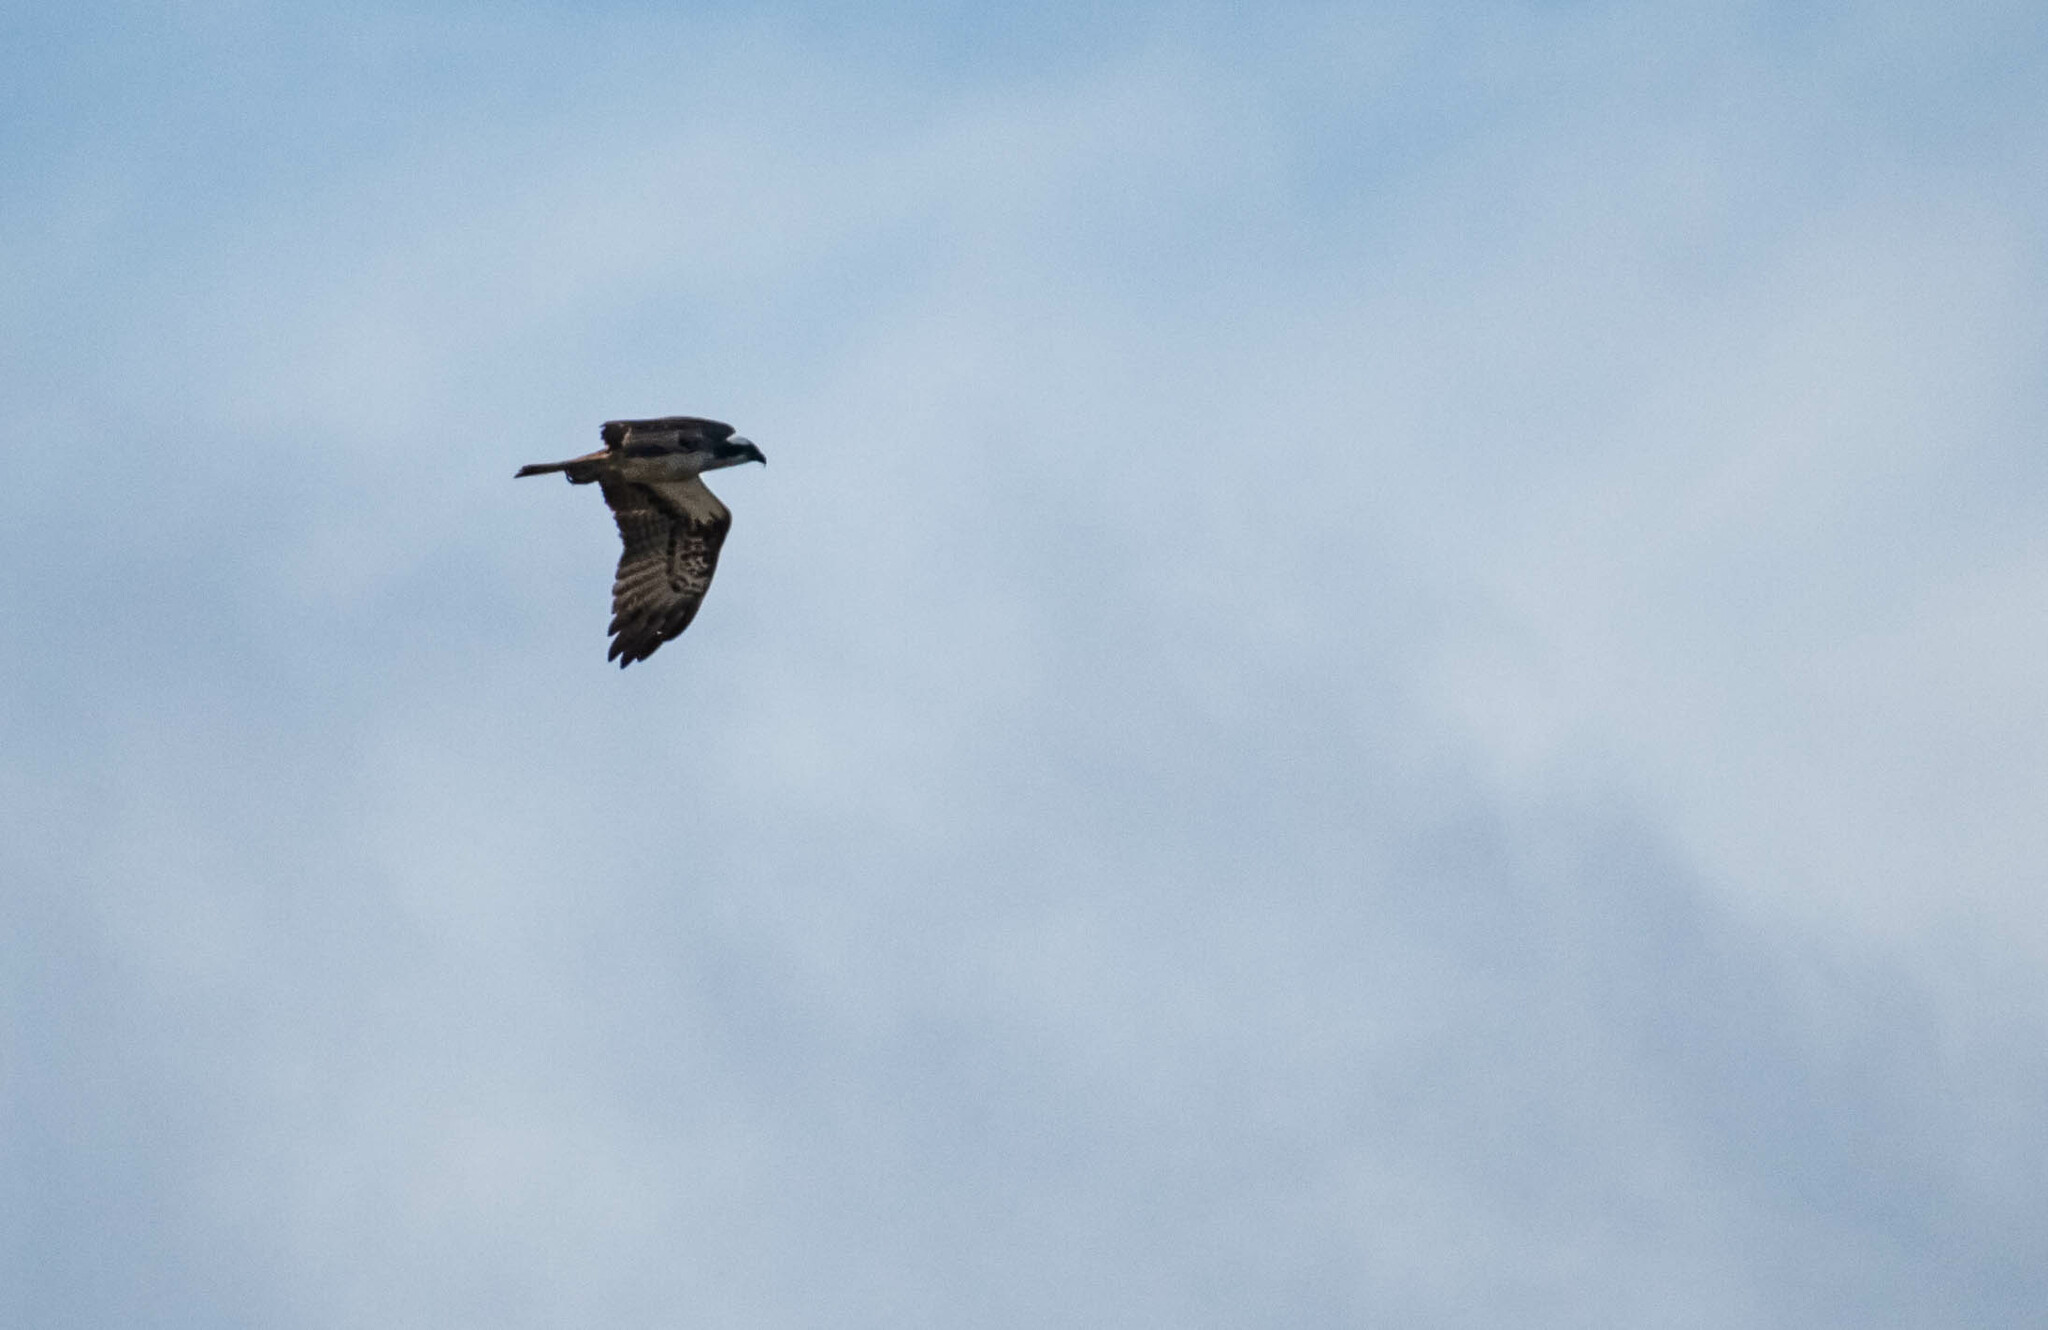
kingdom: Animalia
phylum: Chordata
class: Aves
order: Accipitriformes
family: Pandionidae
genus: Pandion
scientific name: Pandion haliaetus
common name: Osprey
